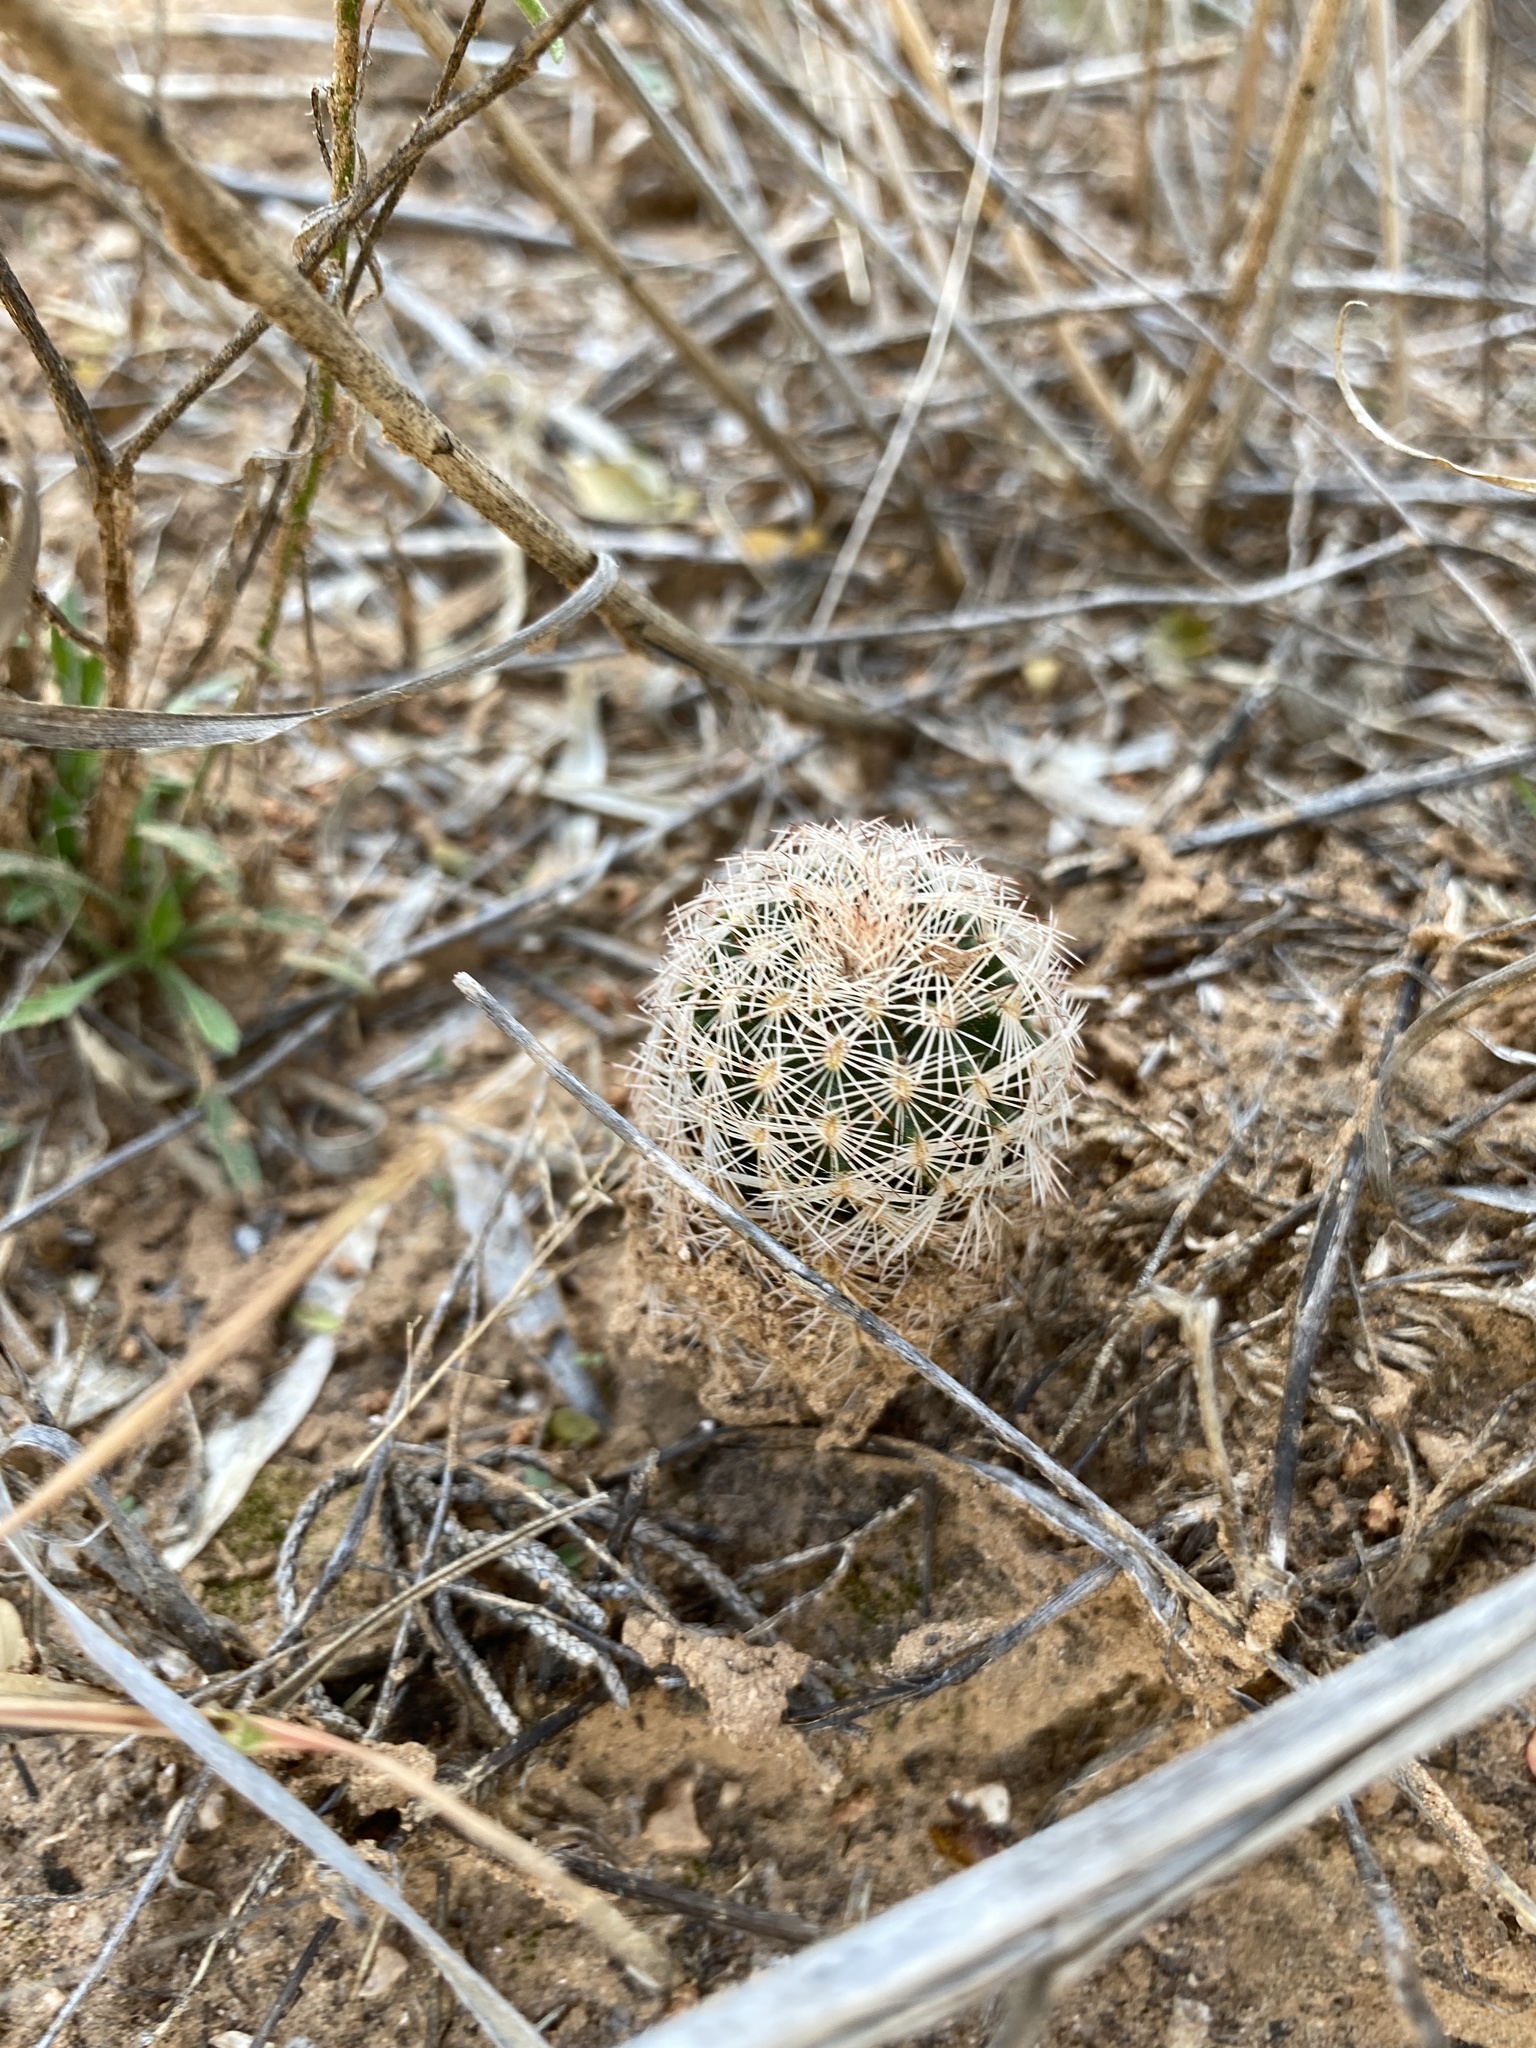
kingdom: Plantae
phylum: Tracheophyta
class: Magnoliopsida
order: Caryophyllales
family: Cactaceae
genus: Echinocereus
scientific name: Echinocereus reichenbachii
